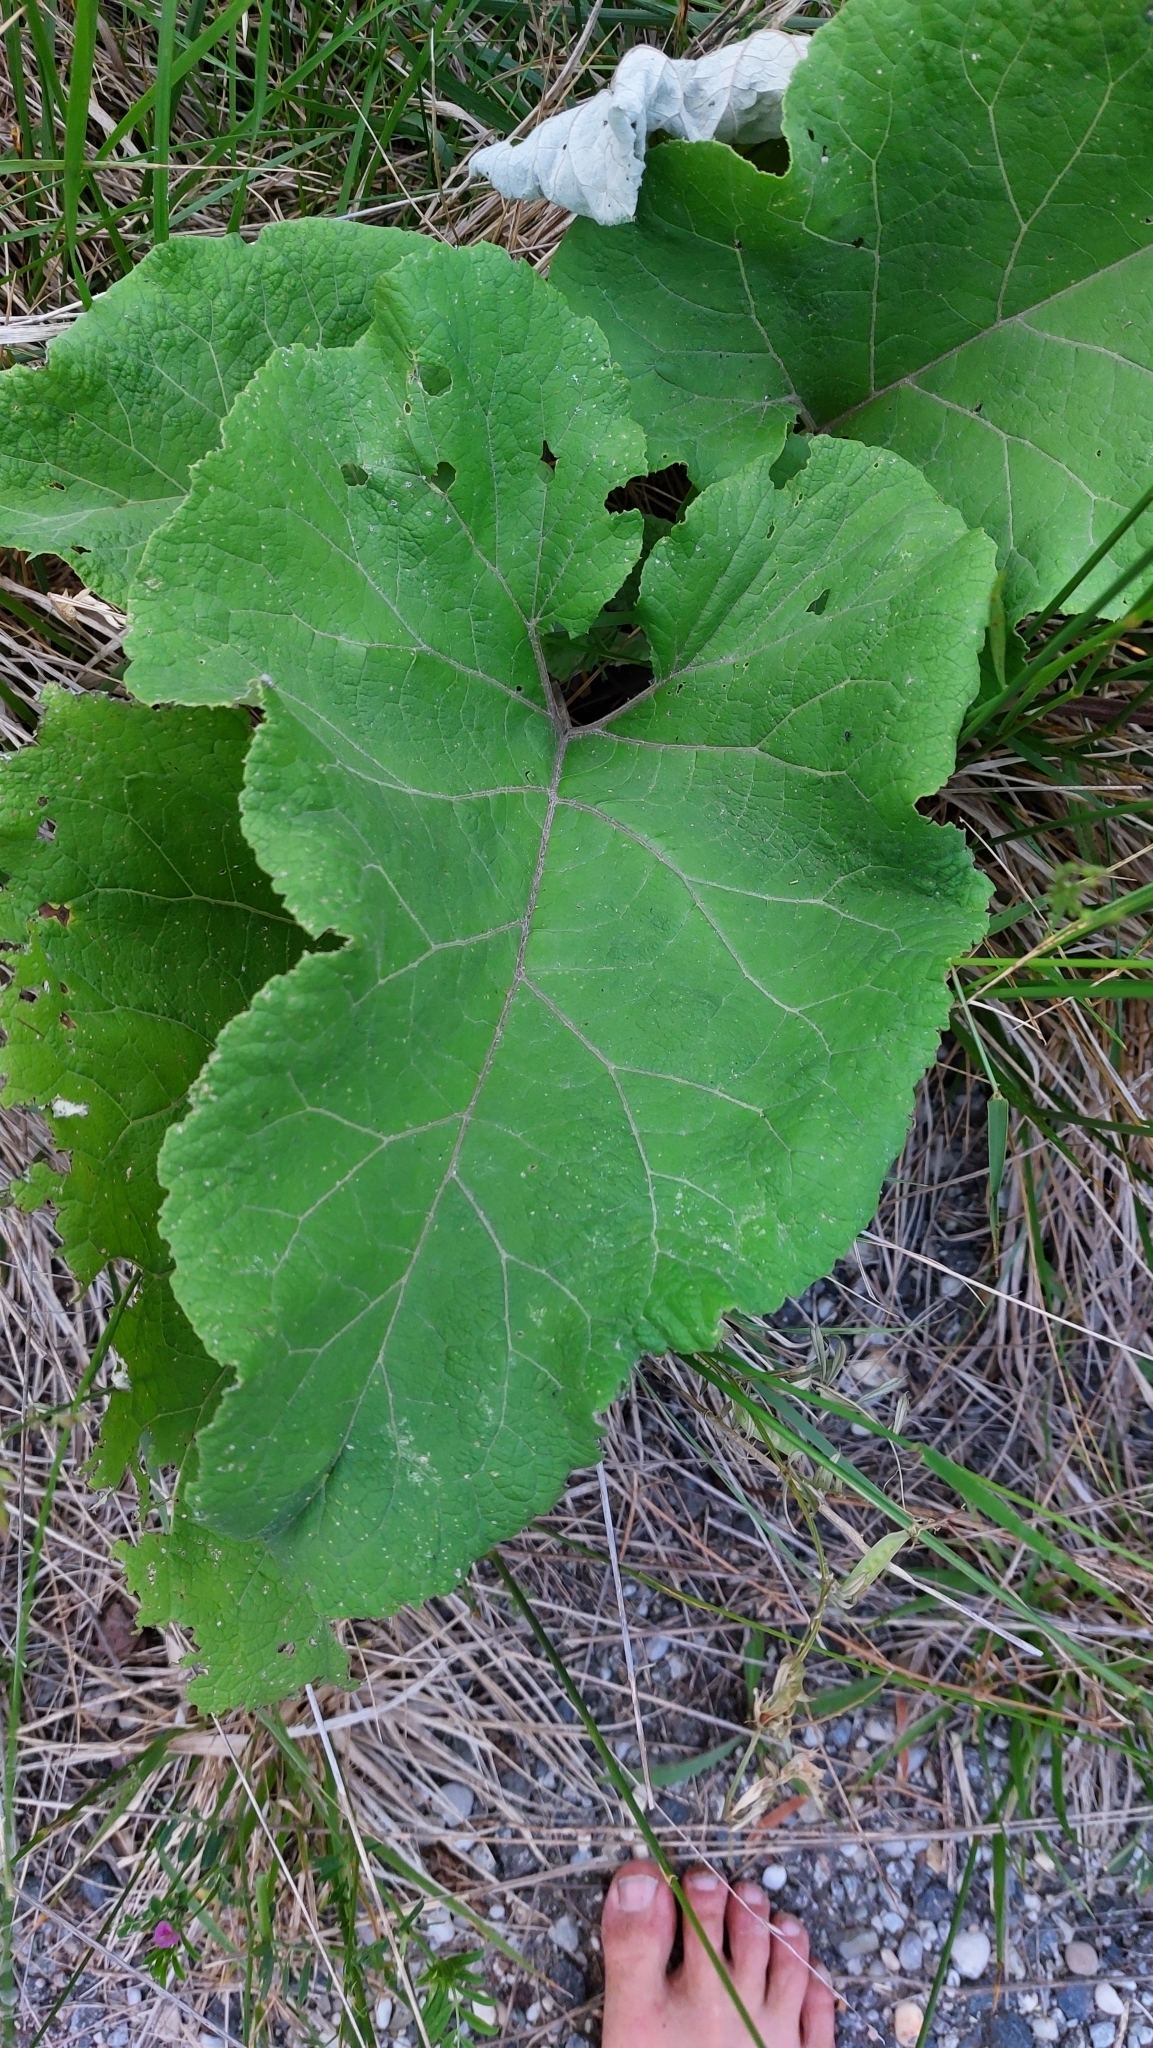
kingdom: Plantae
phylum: Tracheophyta
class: Magnoliopsida
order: Asterales
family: Asteraceae
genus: Arctium
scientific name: Arctium
